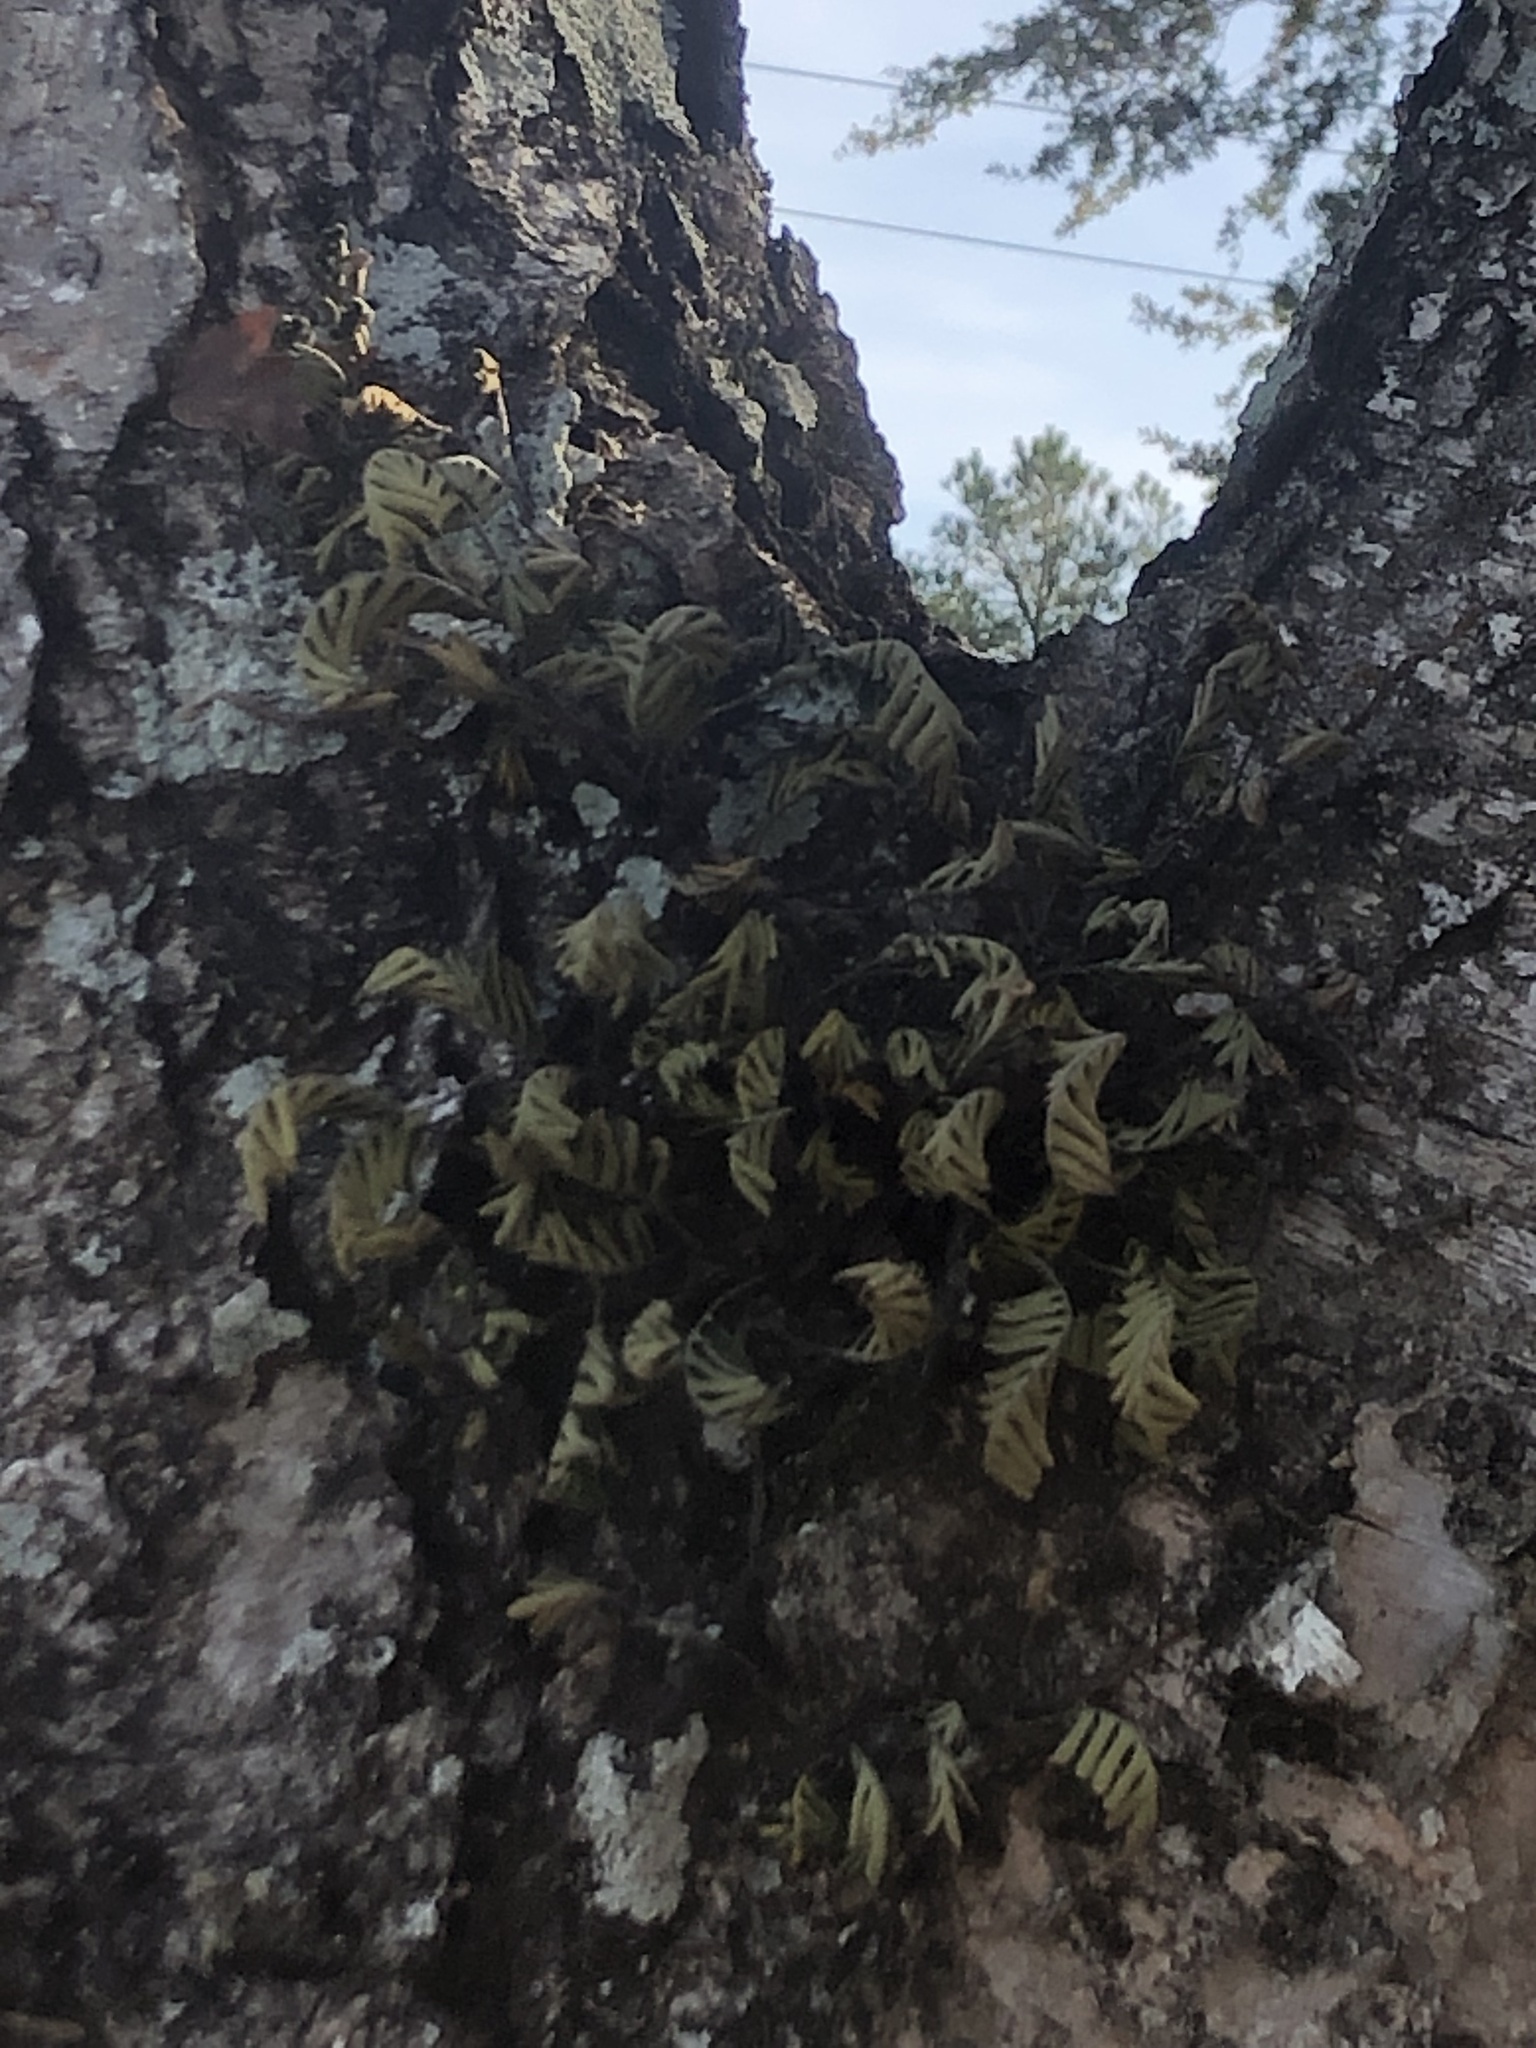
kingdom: Plantae
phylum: Tracheophyta
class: Polypodiopsida
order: Polypodiales
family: Polypodiaceae
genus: Pleopeltis
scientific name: Pleopeltis michauxiana
